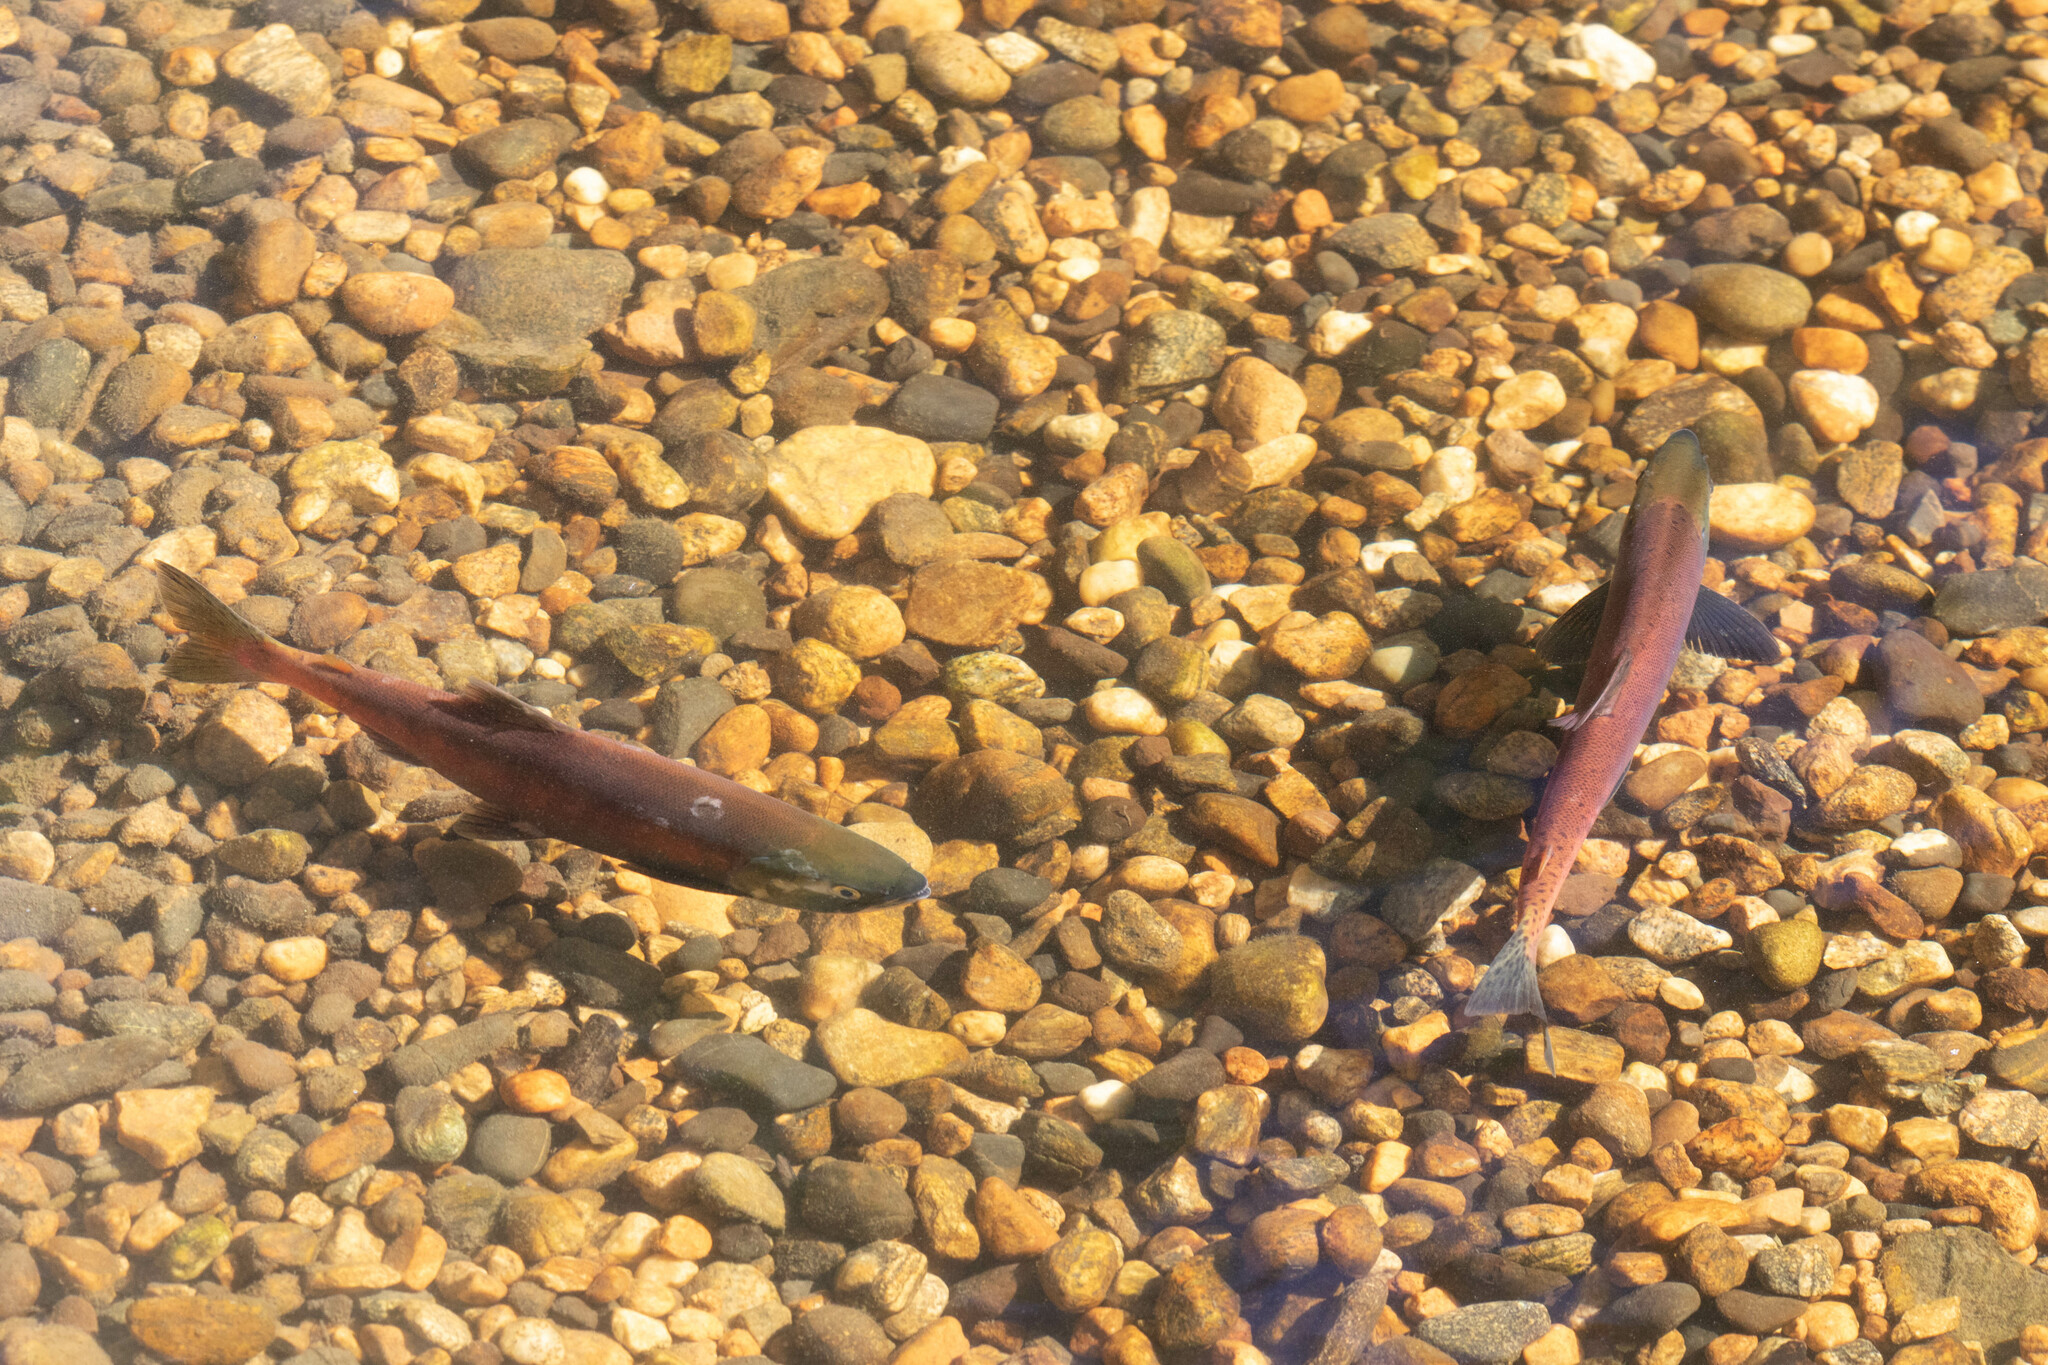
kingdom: Animalia
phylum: Chordata
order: Salmoniformes
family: Salmonidae
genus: Oncorhynchus
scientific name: Oncorhynchus nerka
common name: Sockeye salmon
